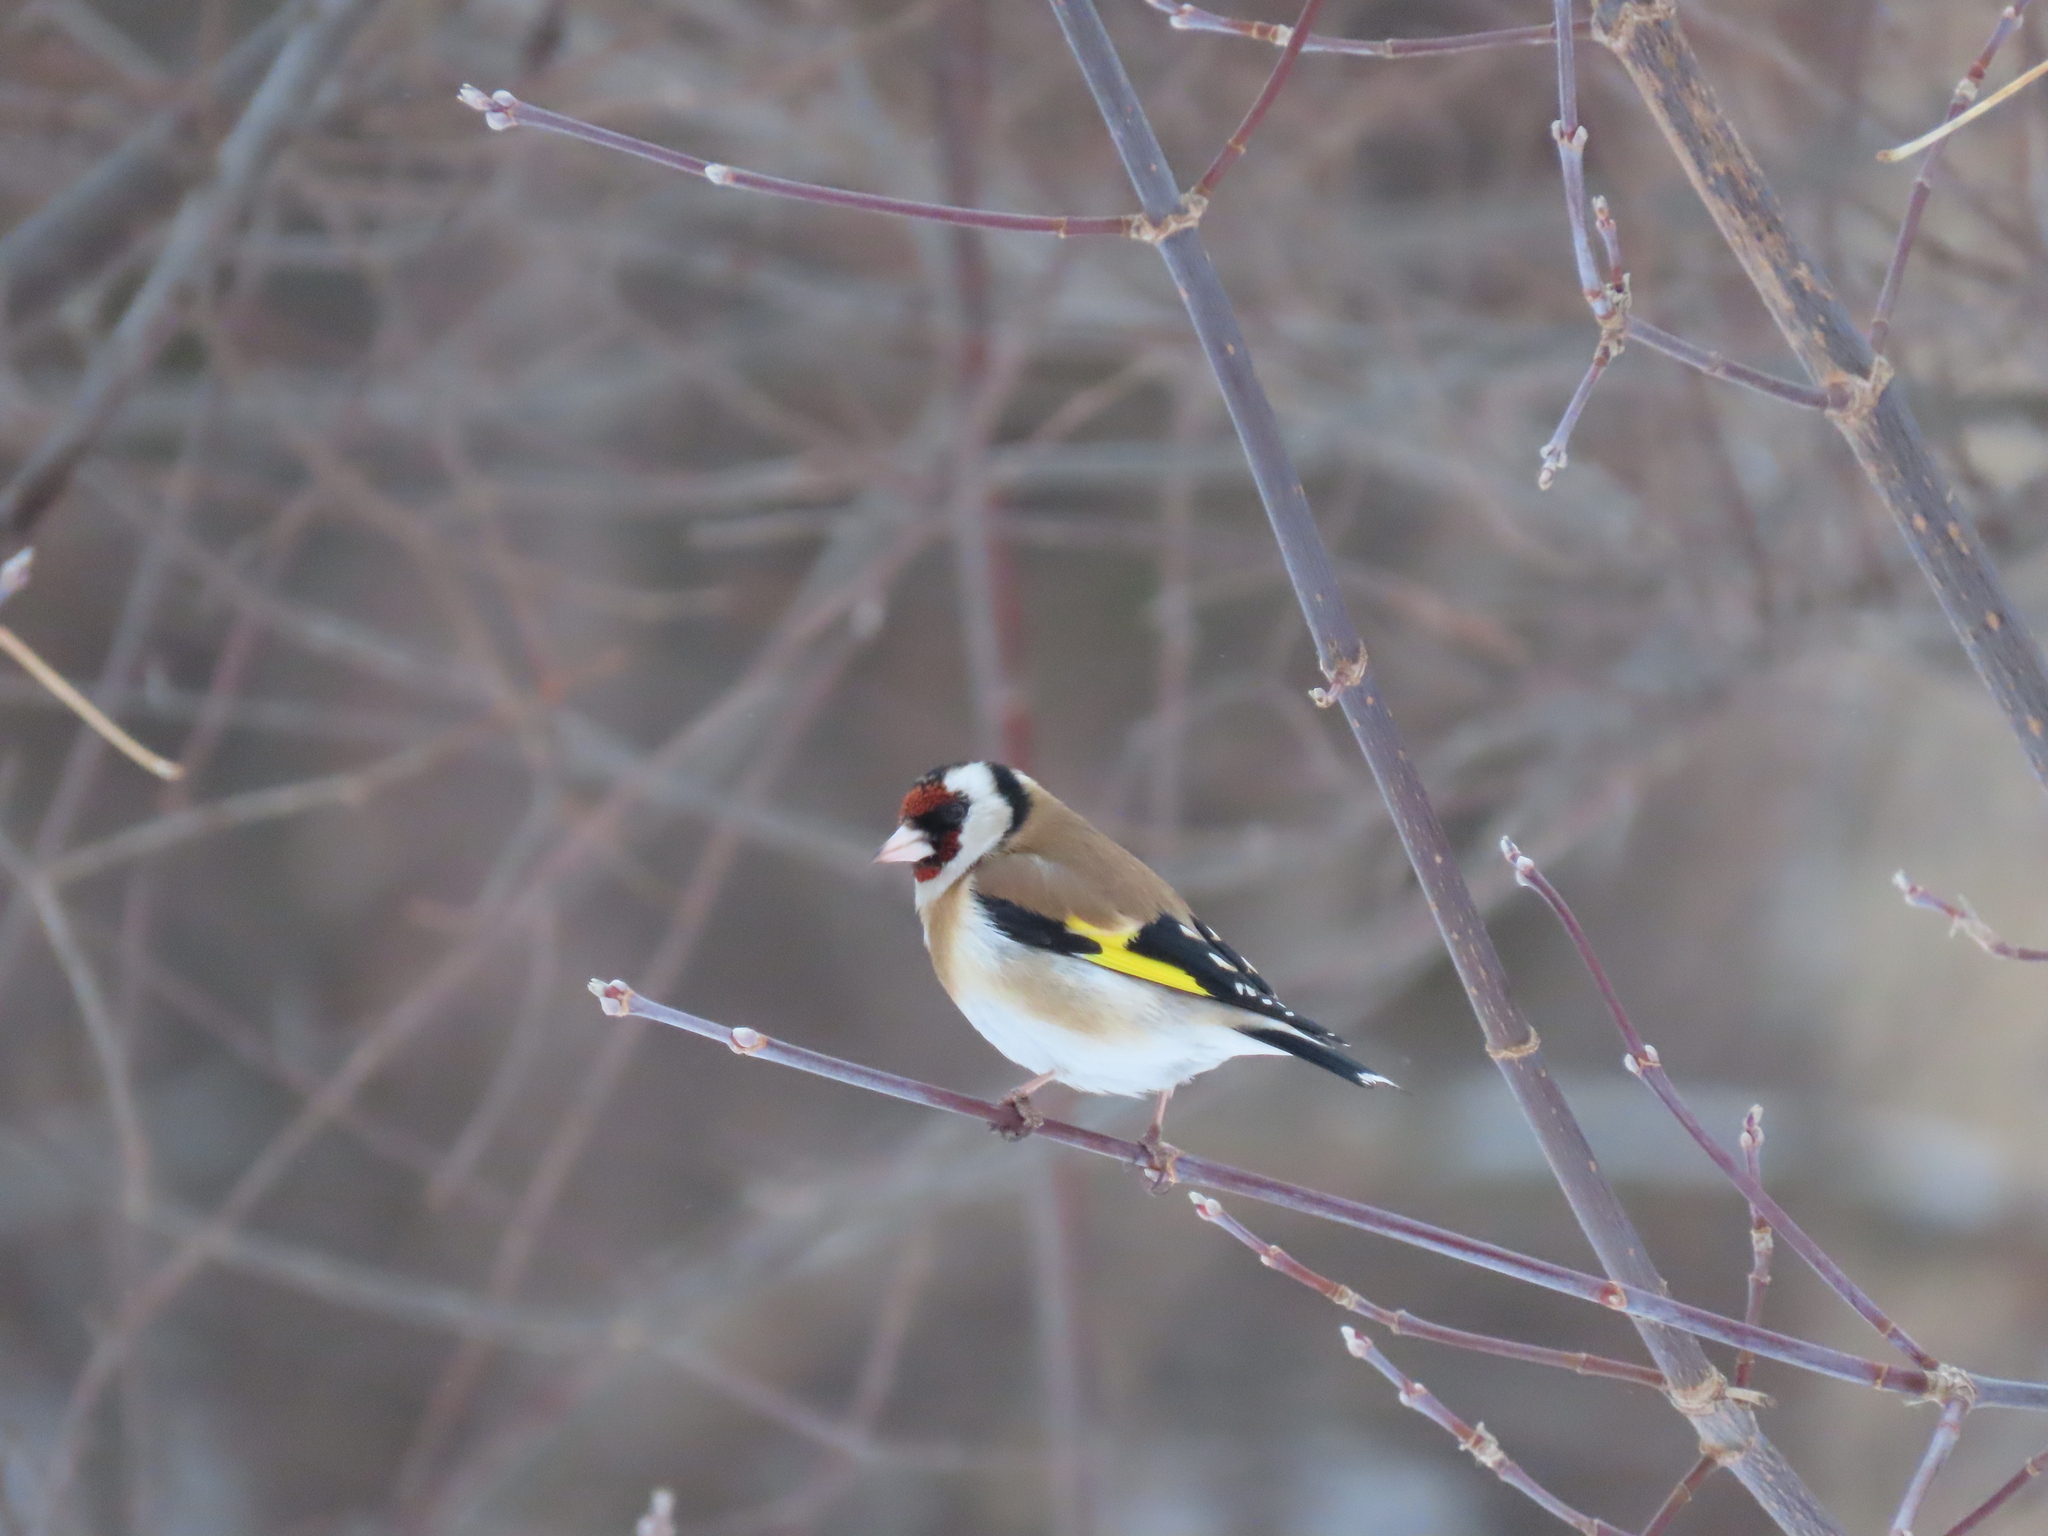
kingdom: Animalia
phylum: Chordata
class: Aves
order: Passeriformes
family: Fringillidae
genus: Carduelis
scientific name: Carduelis carduelis
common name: European goldfinch
